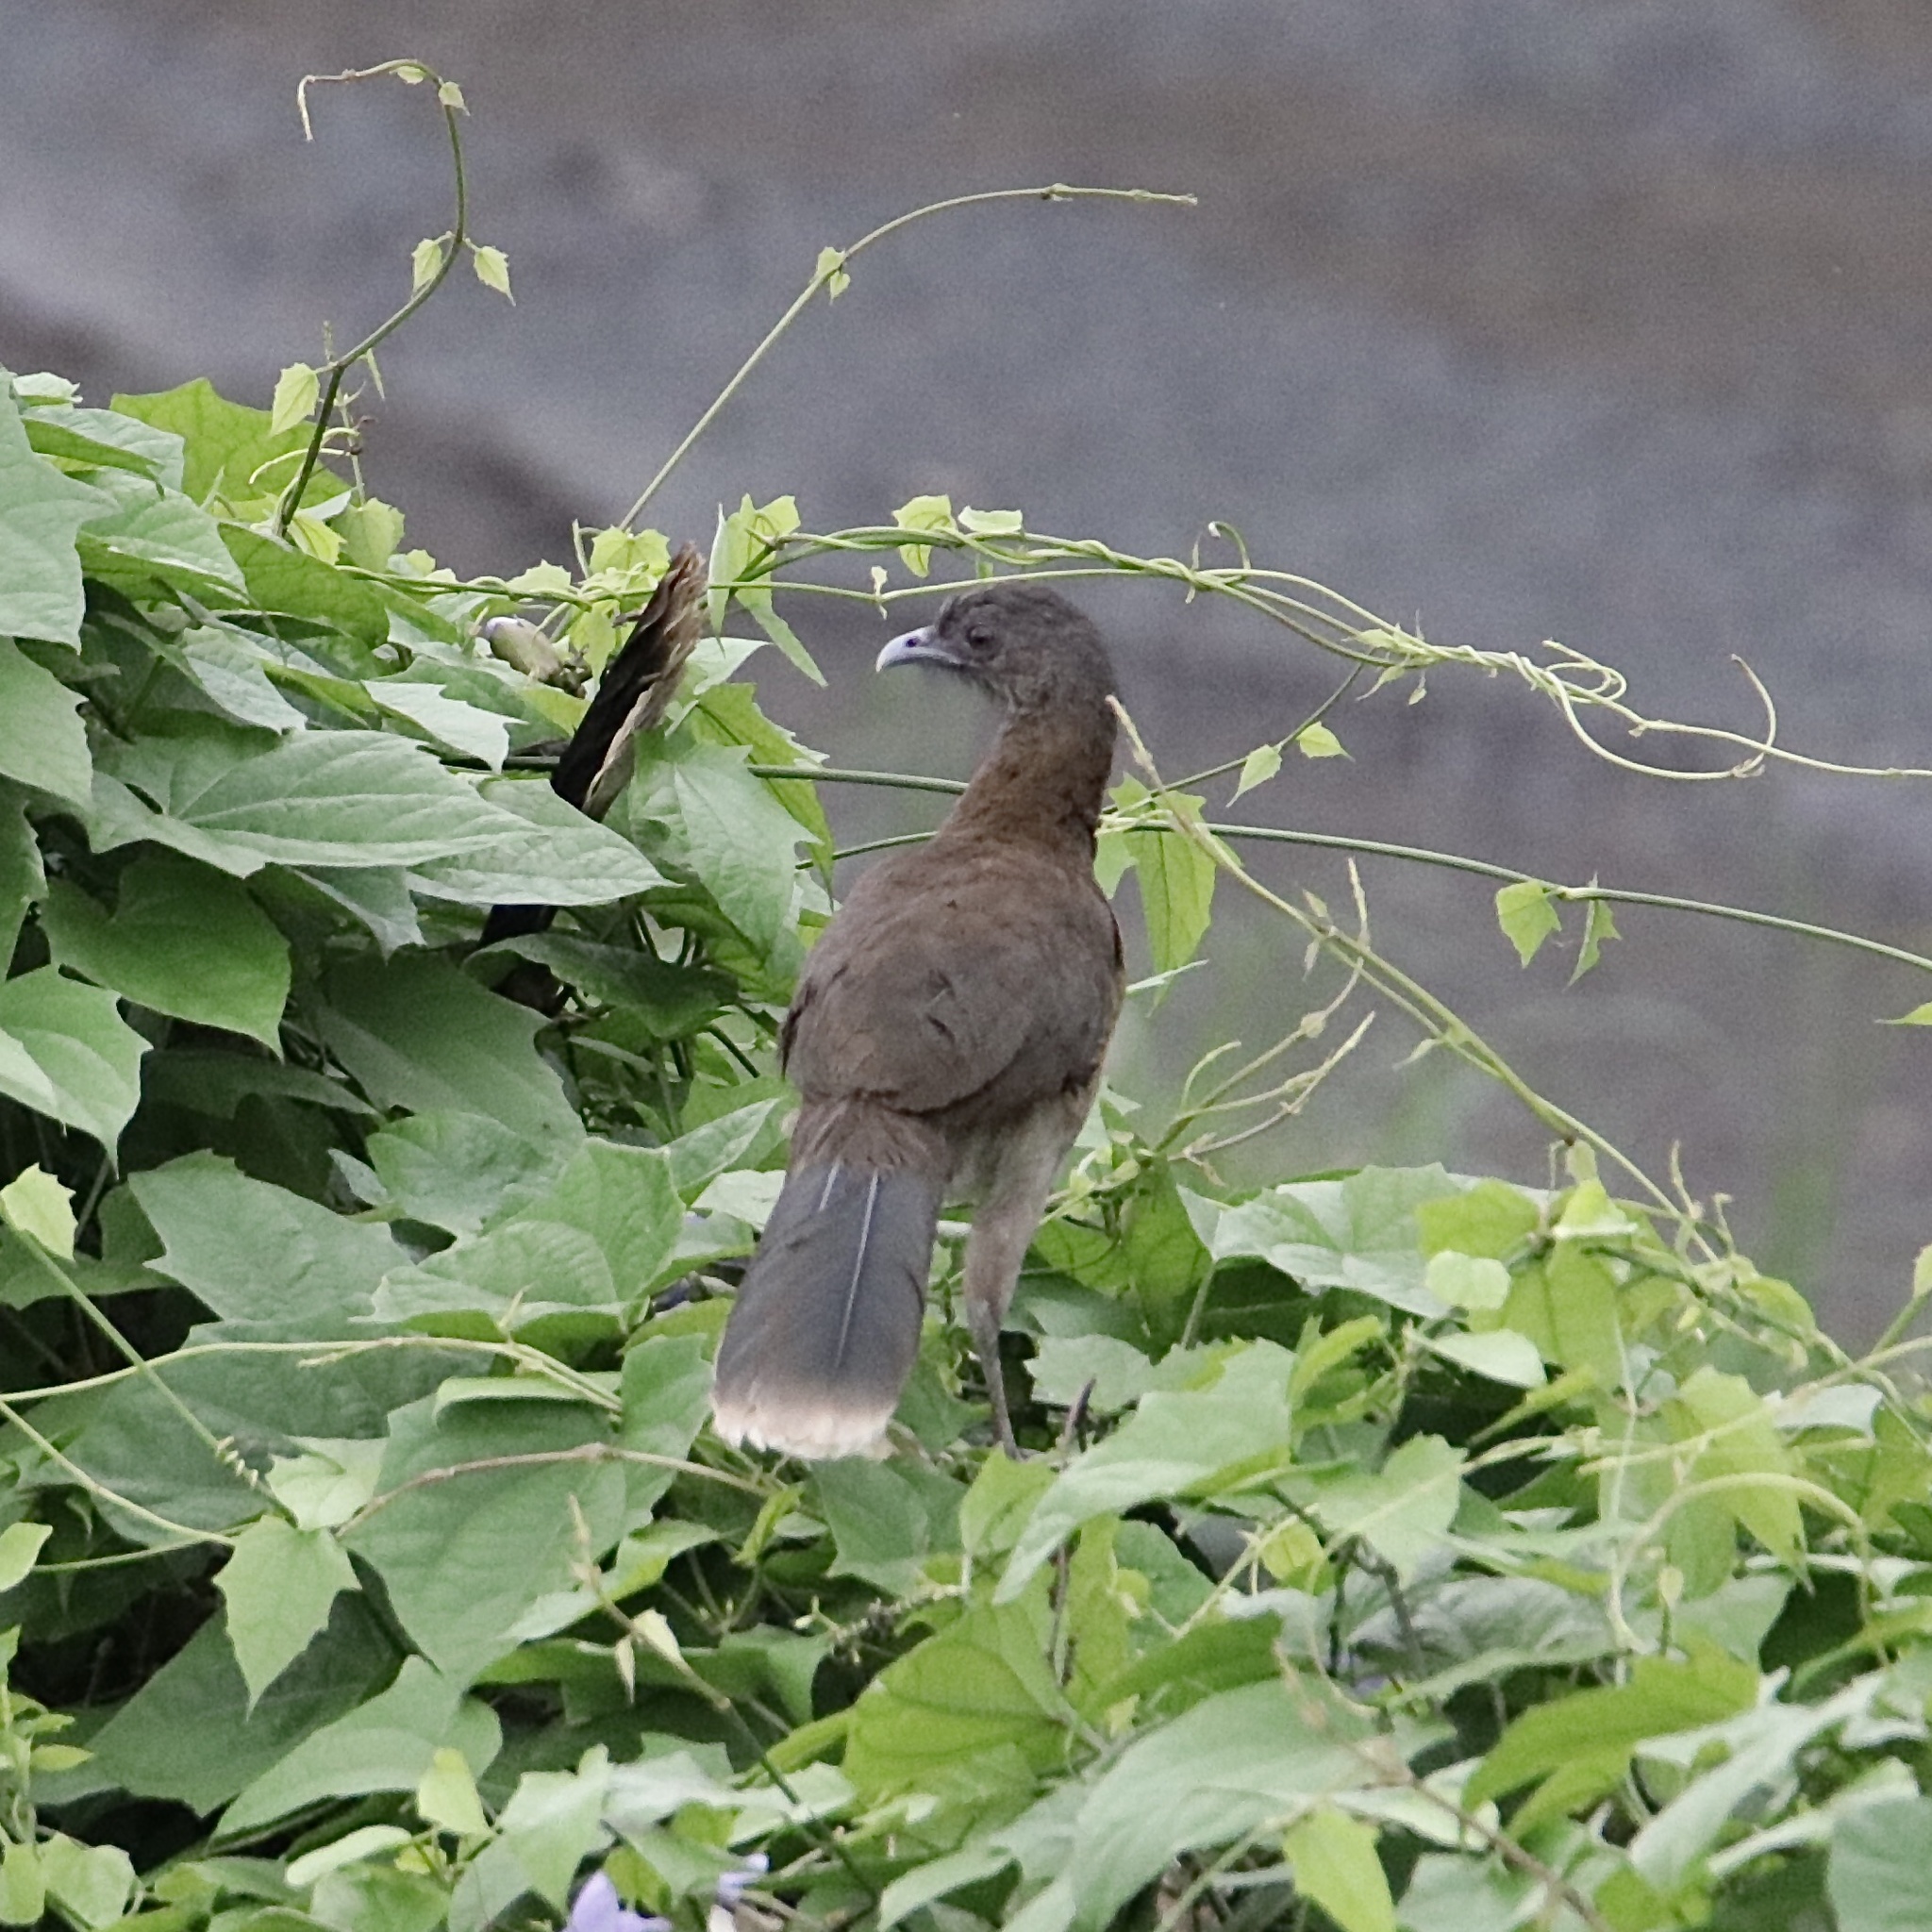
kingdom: Animalia
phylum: Chordata
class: Aves
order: Galliformes
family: Cracidae
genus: Ortalis
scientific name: Ortalis cinereiceps
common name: Grey-headed chachalaca
